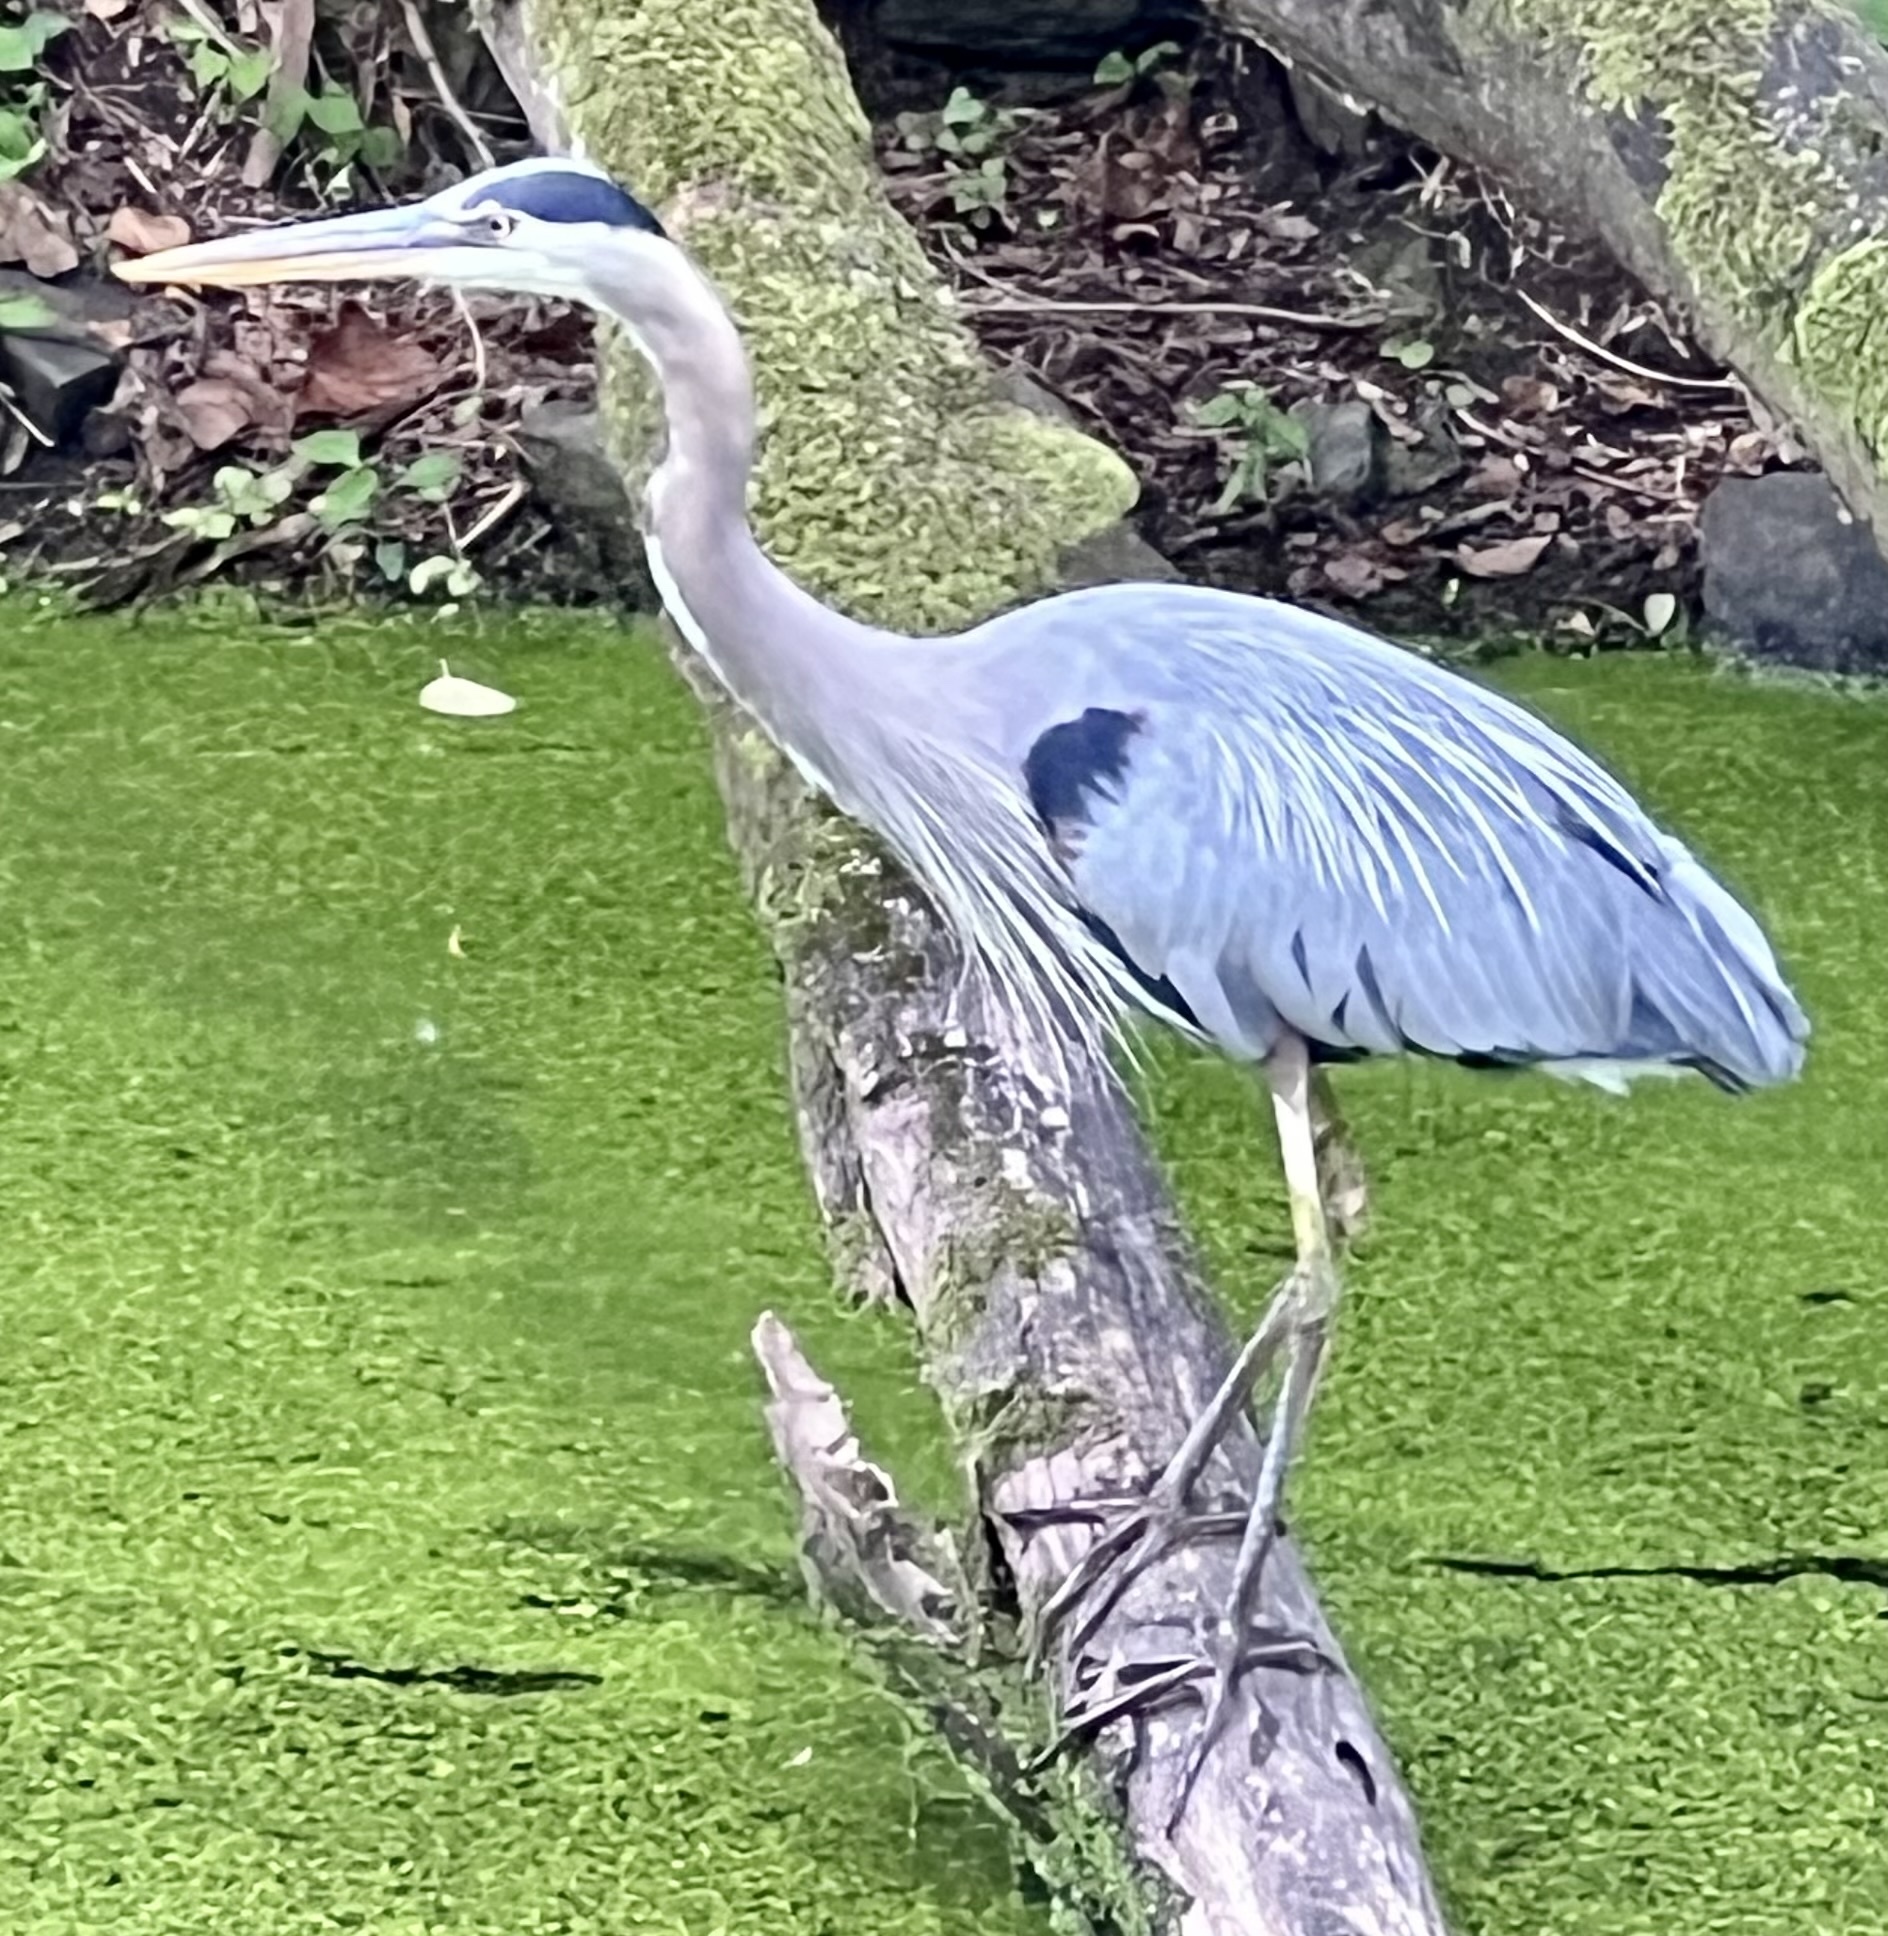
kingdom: Animalia
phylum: Chordata
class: Aves
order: Pelecaniformes
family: Ardeidae
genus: Ardea
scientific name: Ardea herodias
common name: Great blue heron
